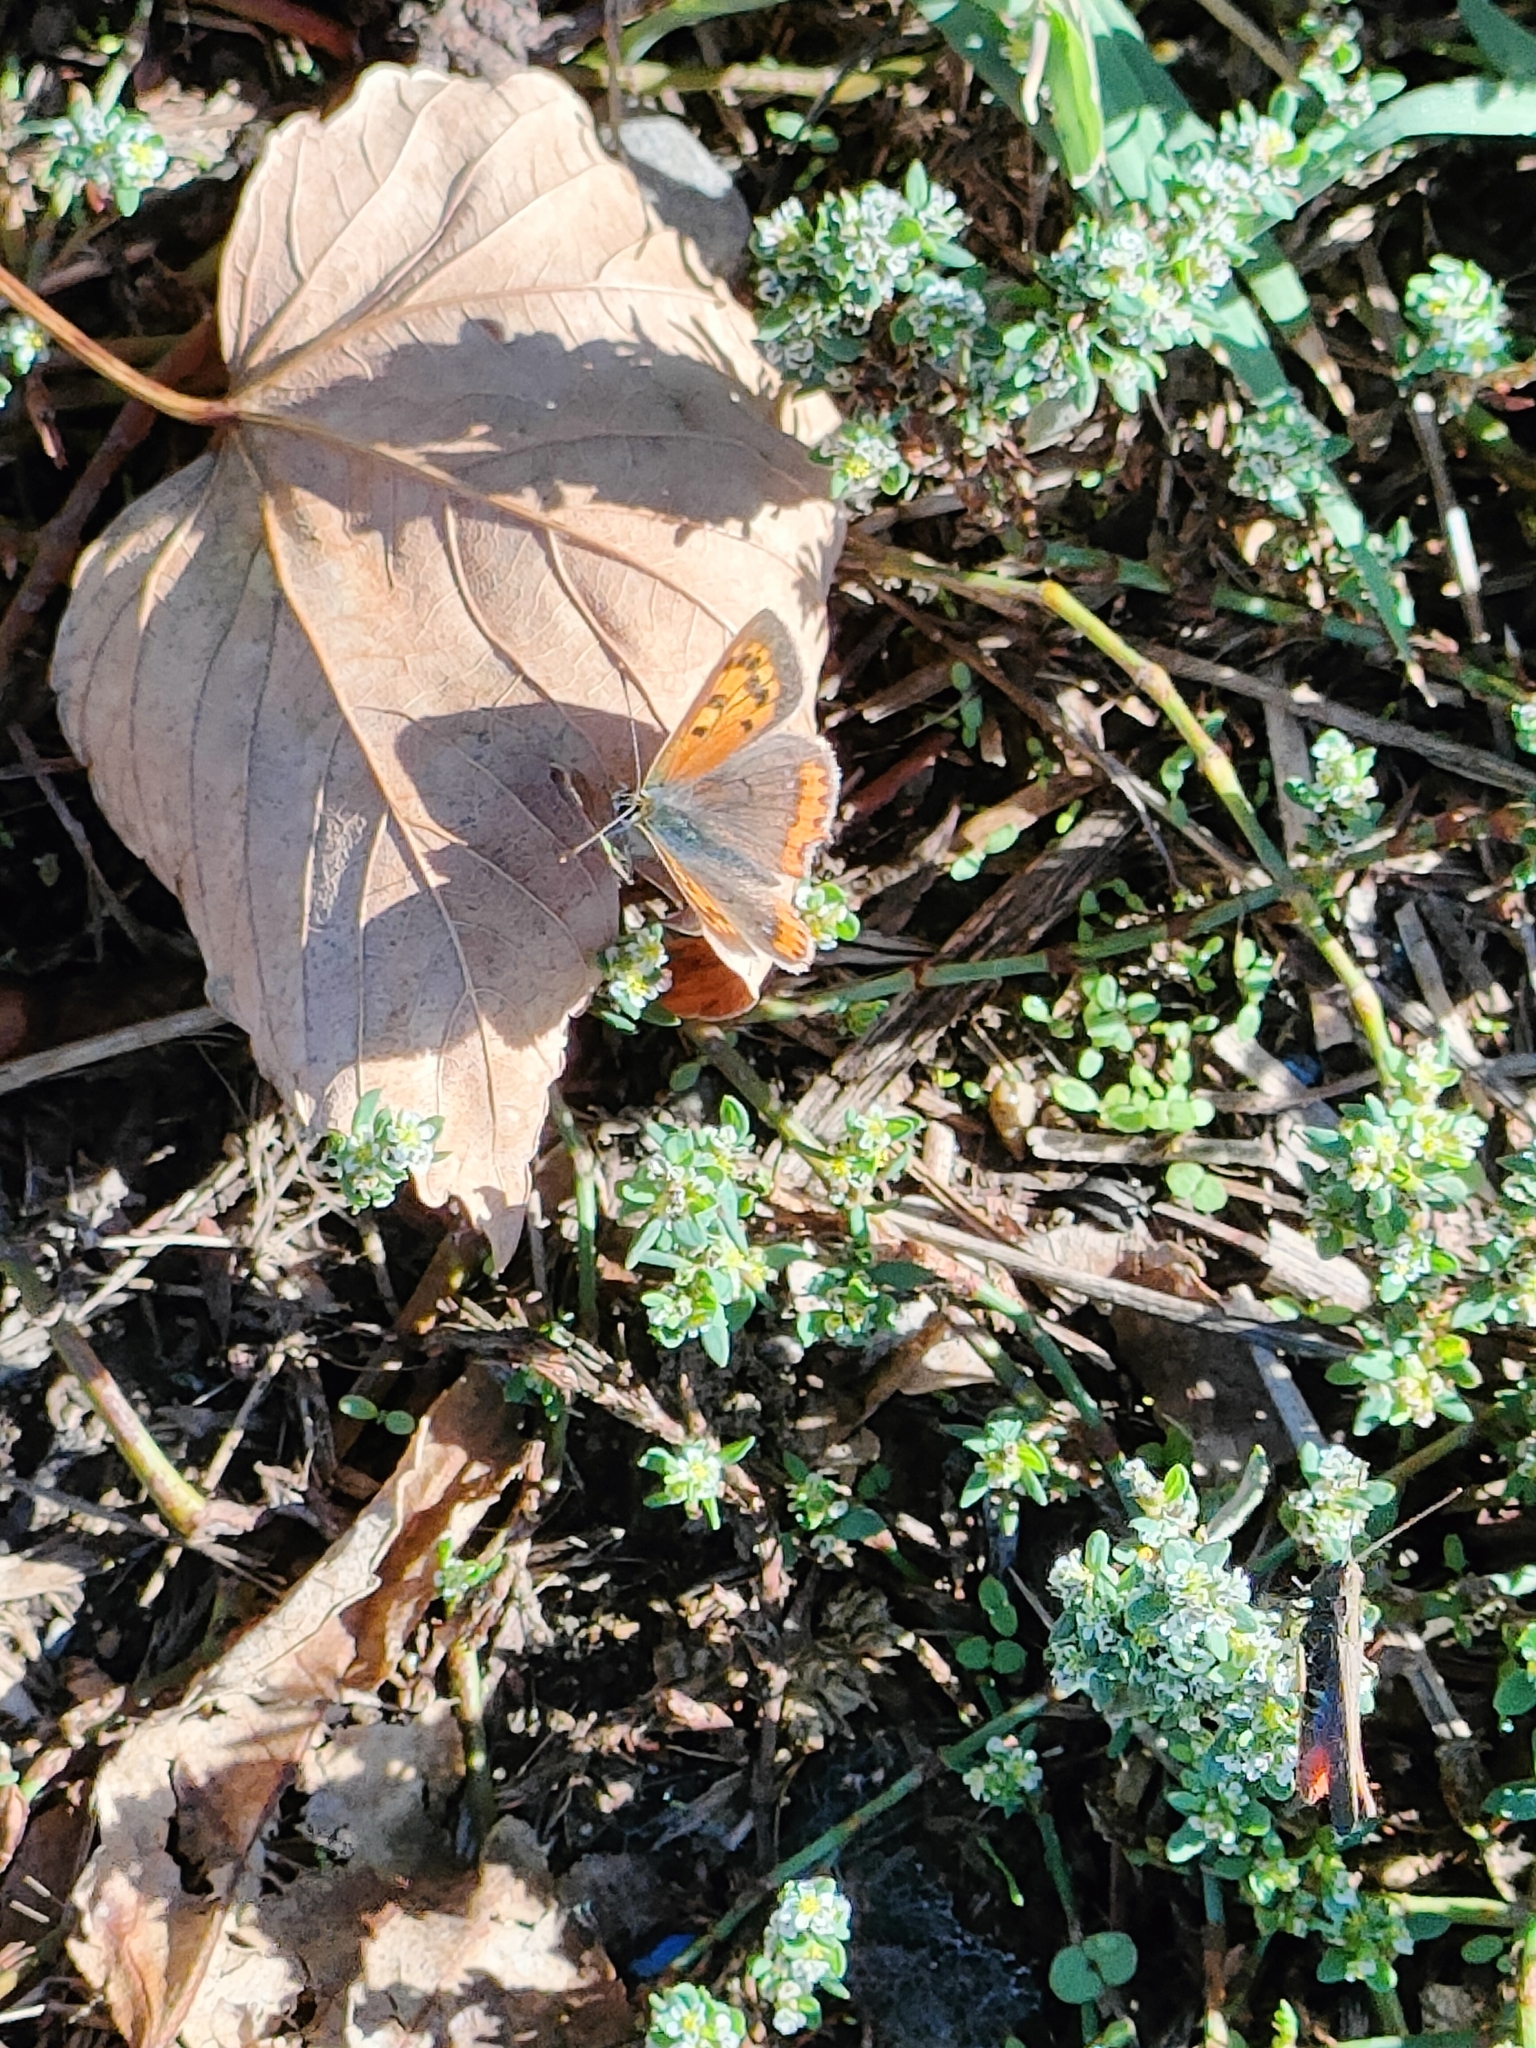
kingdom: Animalia
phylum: Arthropoda
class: Insecta
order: Lepidoptera
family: Lycaenidae
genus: Lycaena
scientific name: Lycaena phlaeas
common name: Small copper
